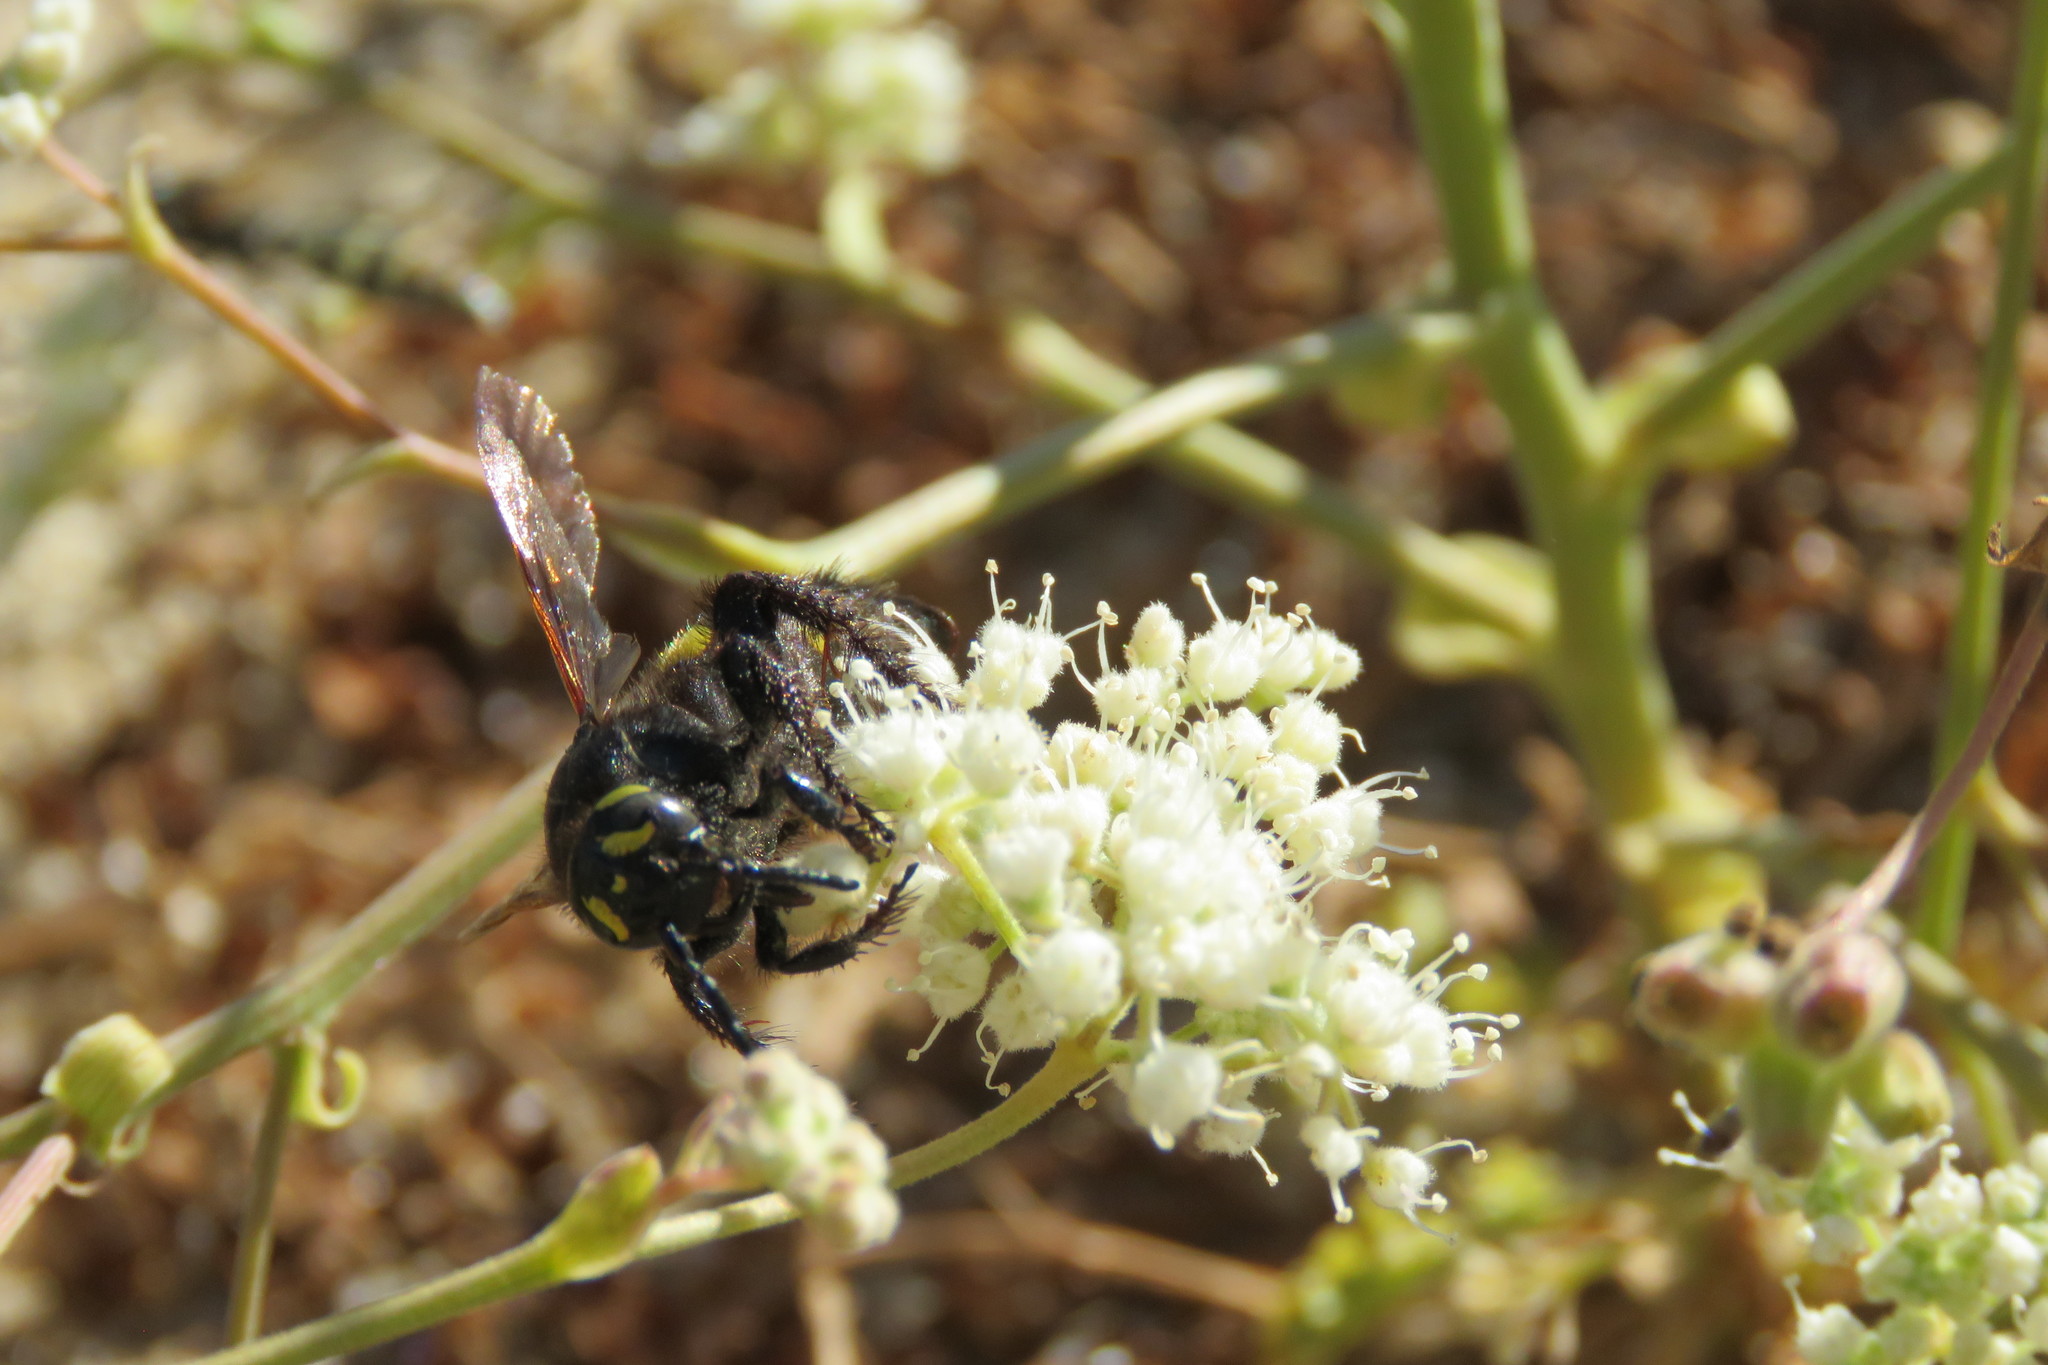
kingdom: Animalia
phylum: Arthropoda
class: Insecta
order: Hymenoptera
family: Vespidae
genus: Vespa
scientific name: Vespa sexmaculata
